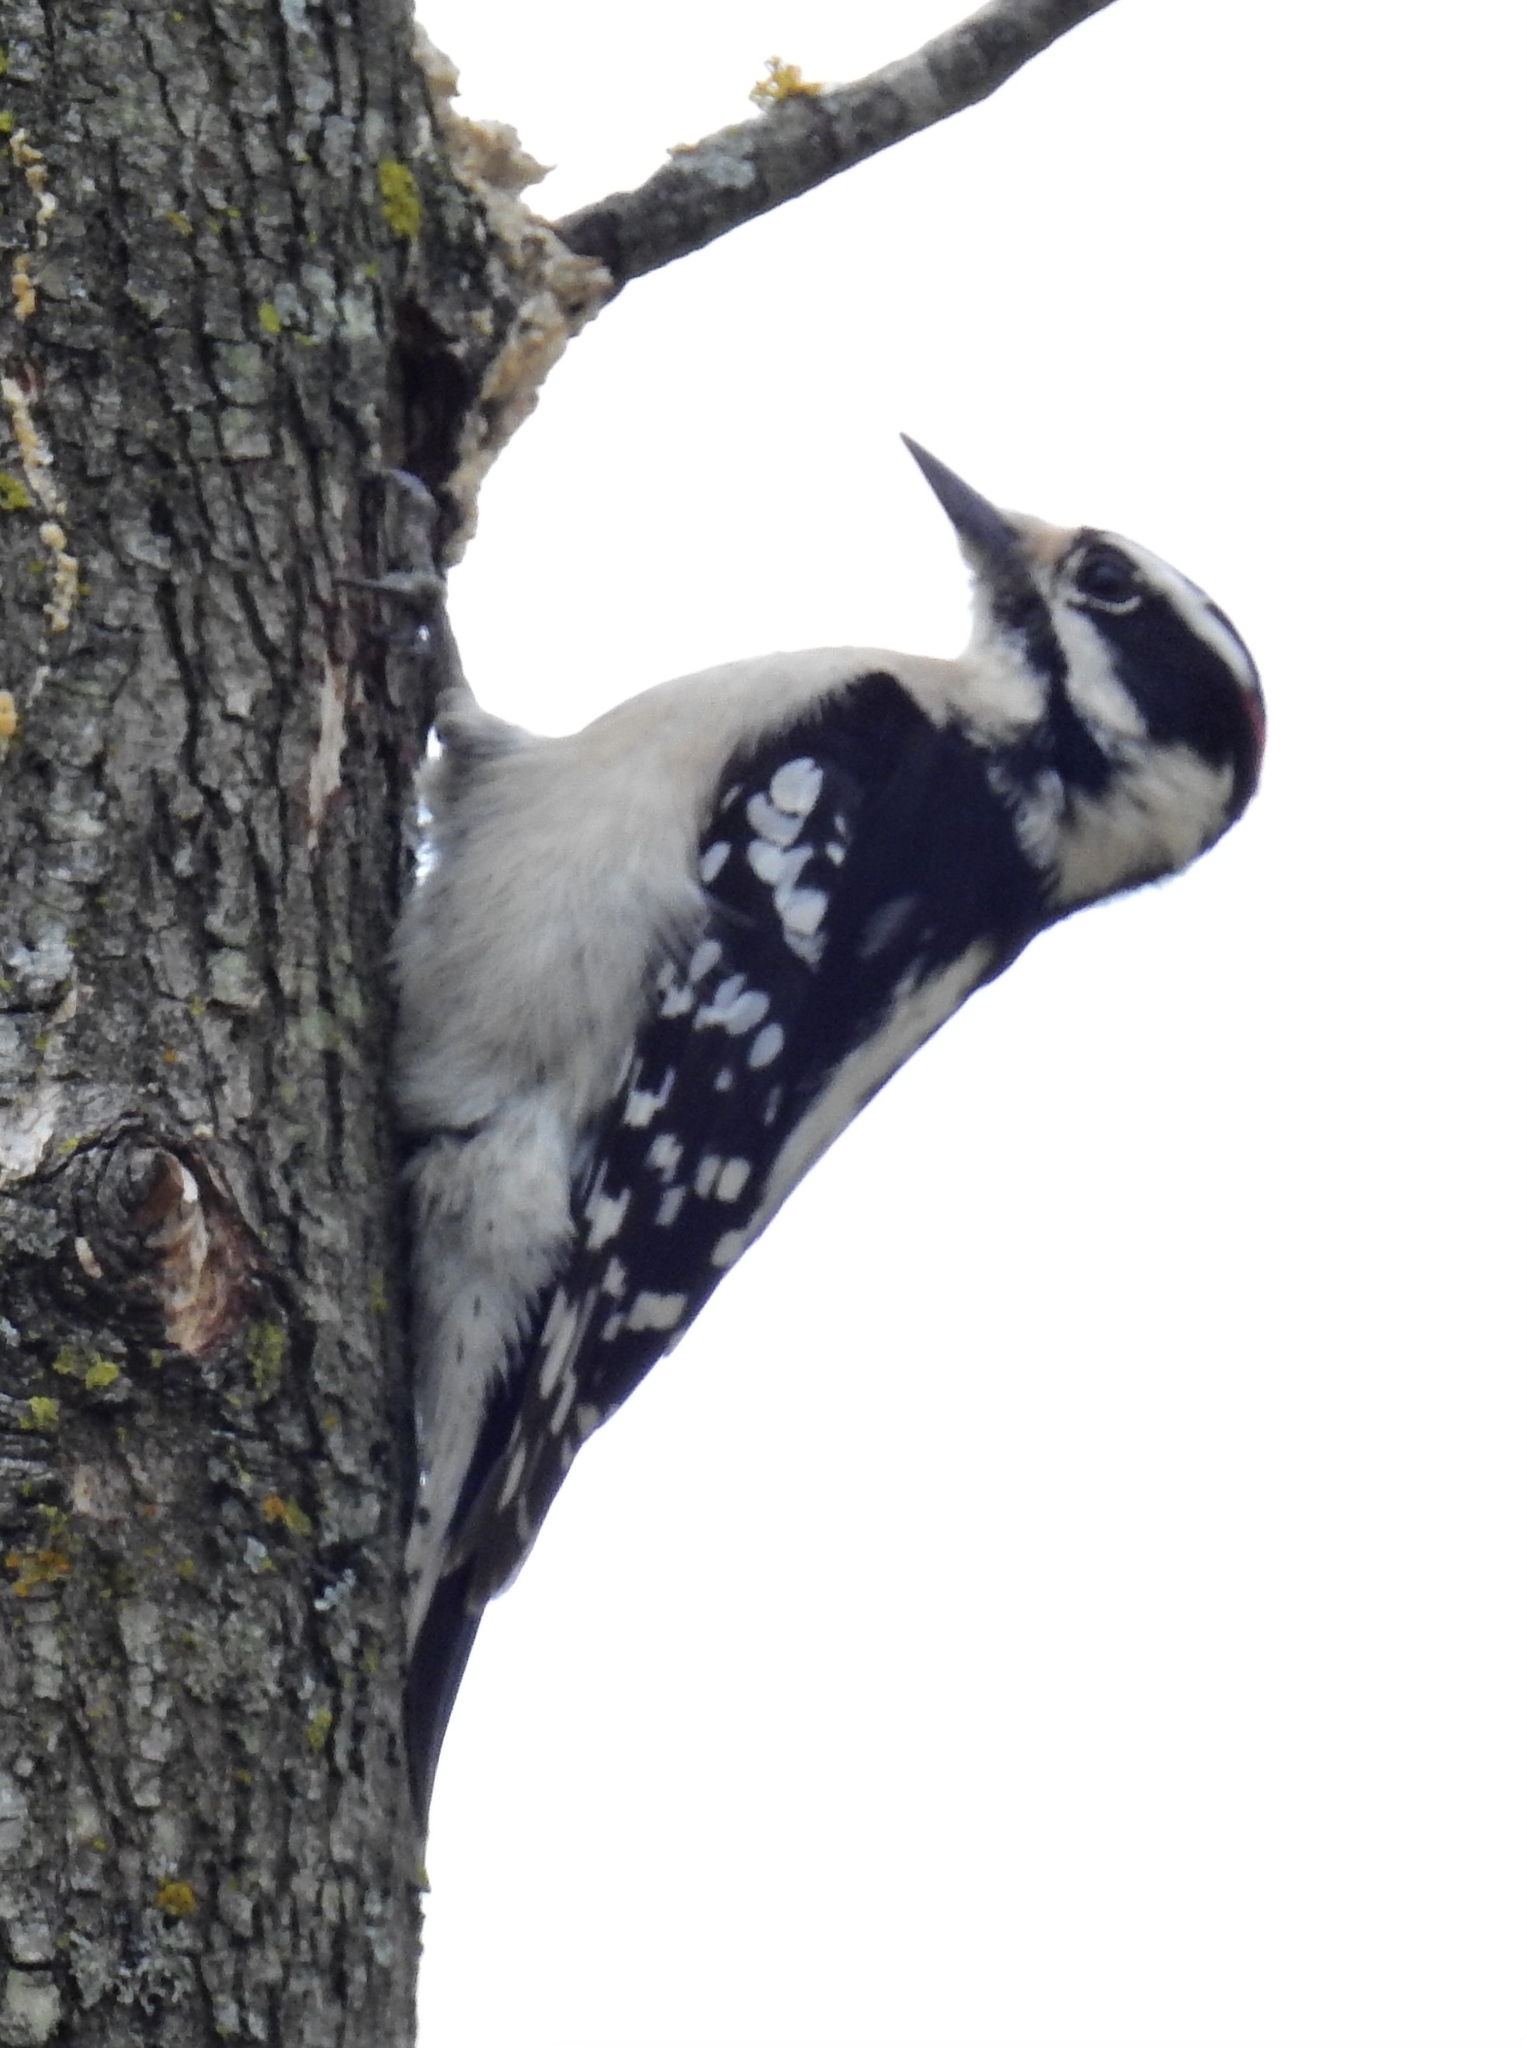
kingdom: Animalia
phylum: Chordata
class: Aves
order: Piciformes
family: Picidae
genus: Dryobates
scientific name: Dryobates pubescens
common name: Downy woodpecker
